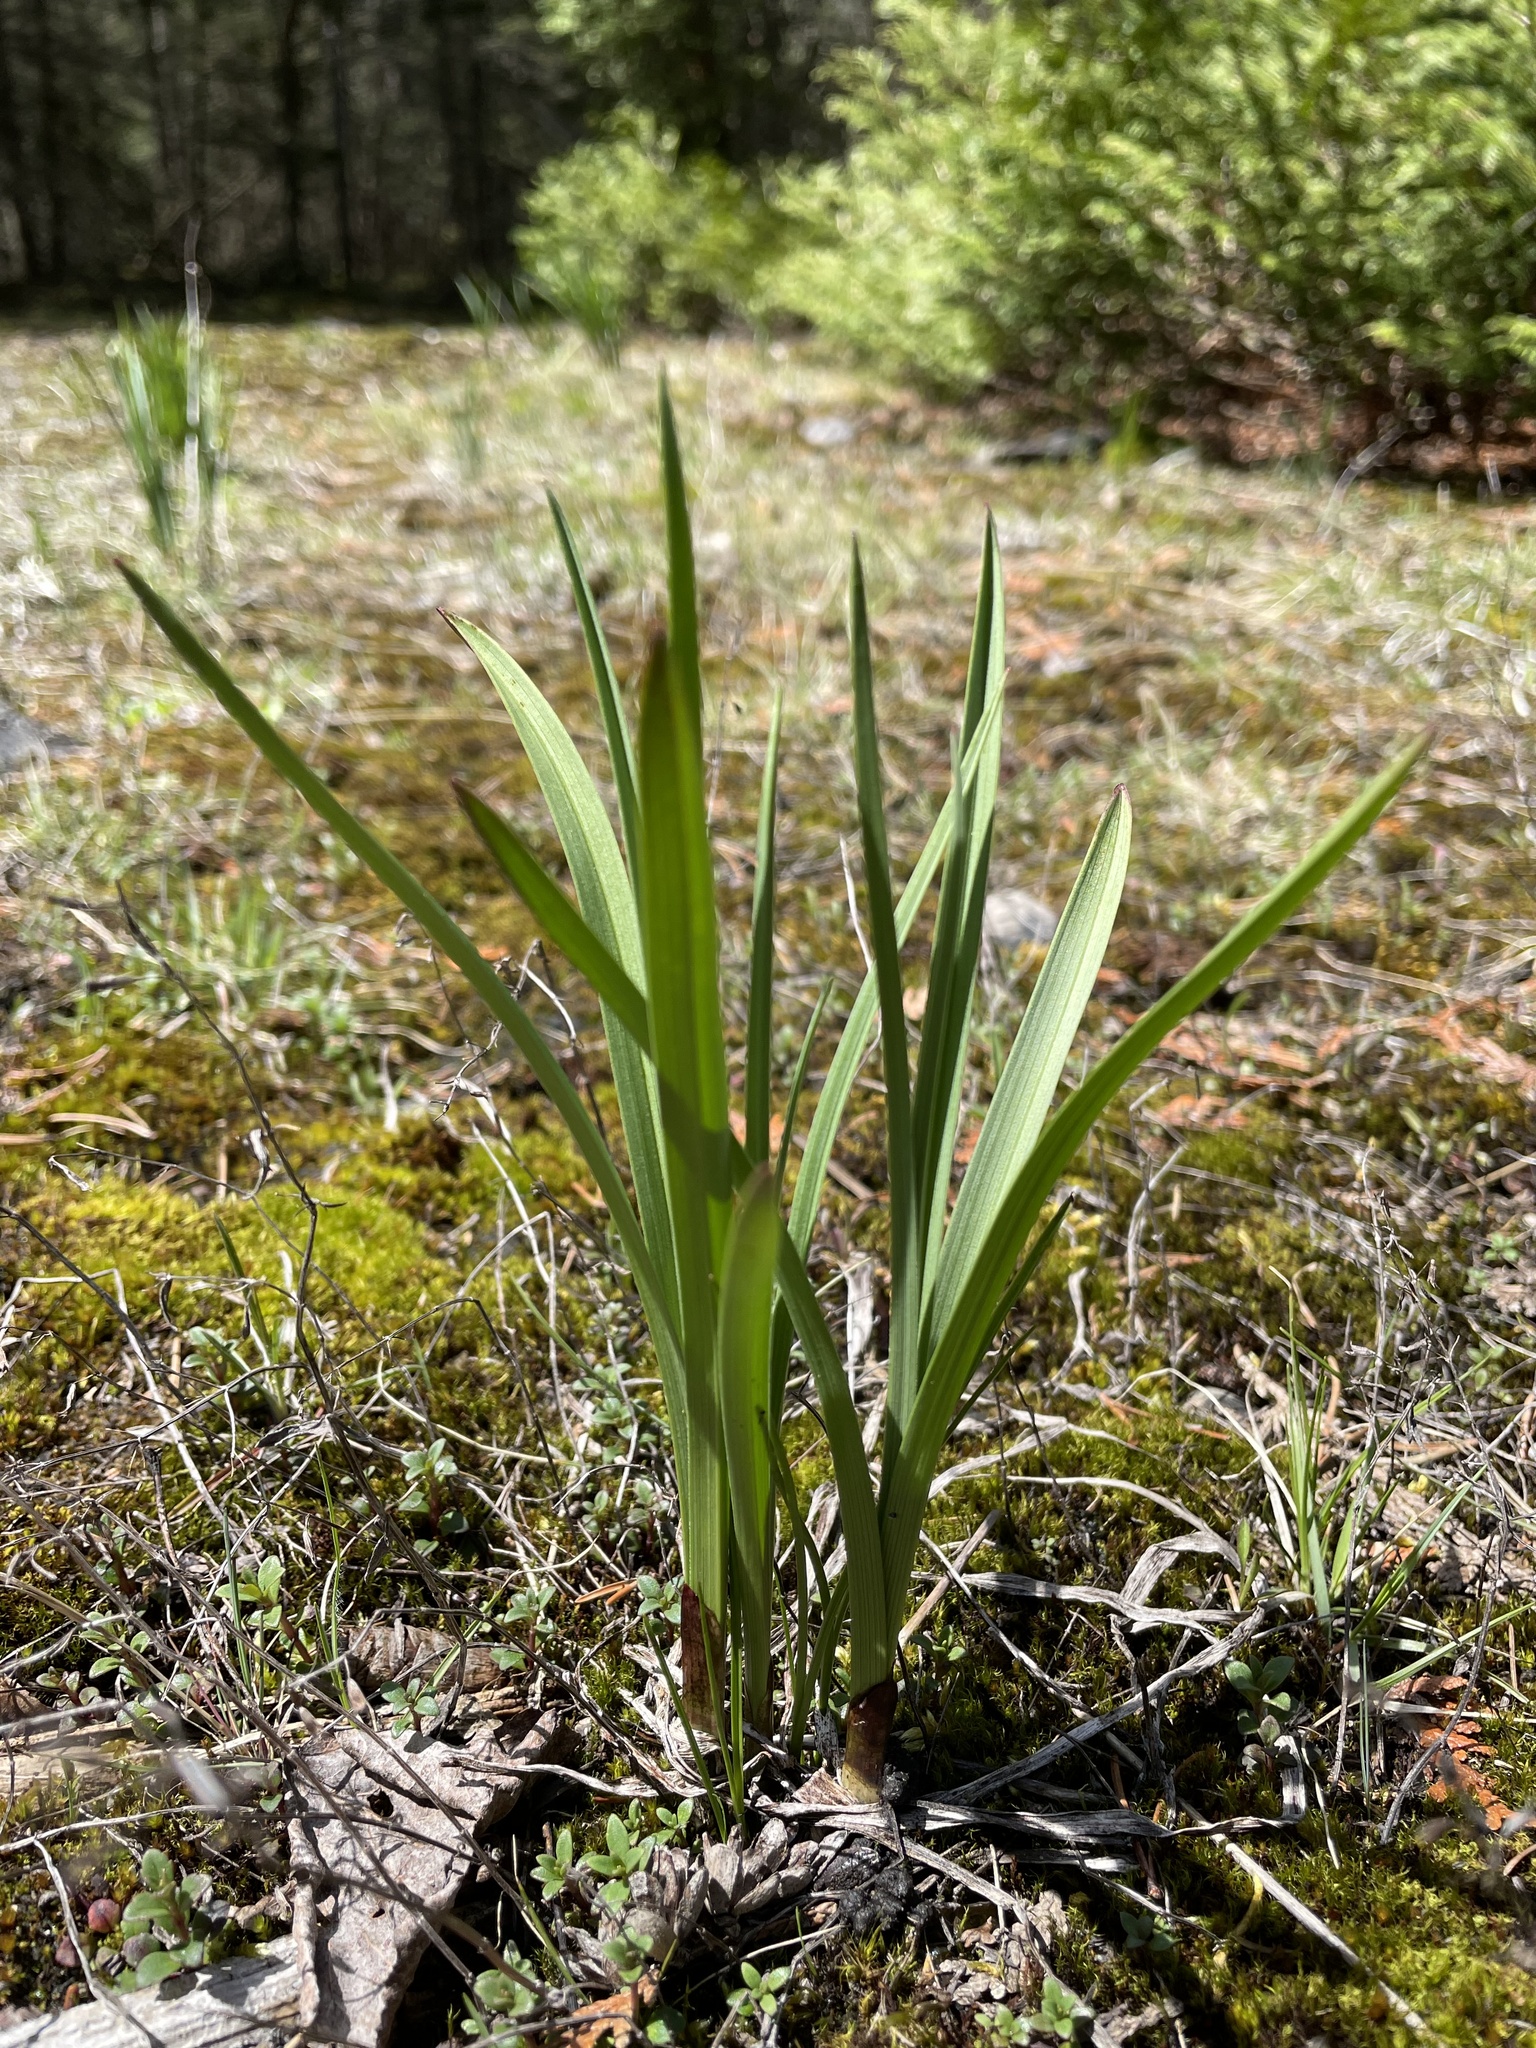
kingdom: Plantae
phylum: Tracheophyta
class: Magnoliopsida
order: Asterales
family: Asteraceae
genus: Liatris
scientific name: Liatris cylindracea
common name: Few-head blazingstar
